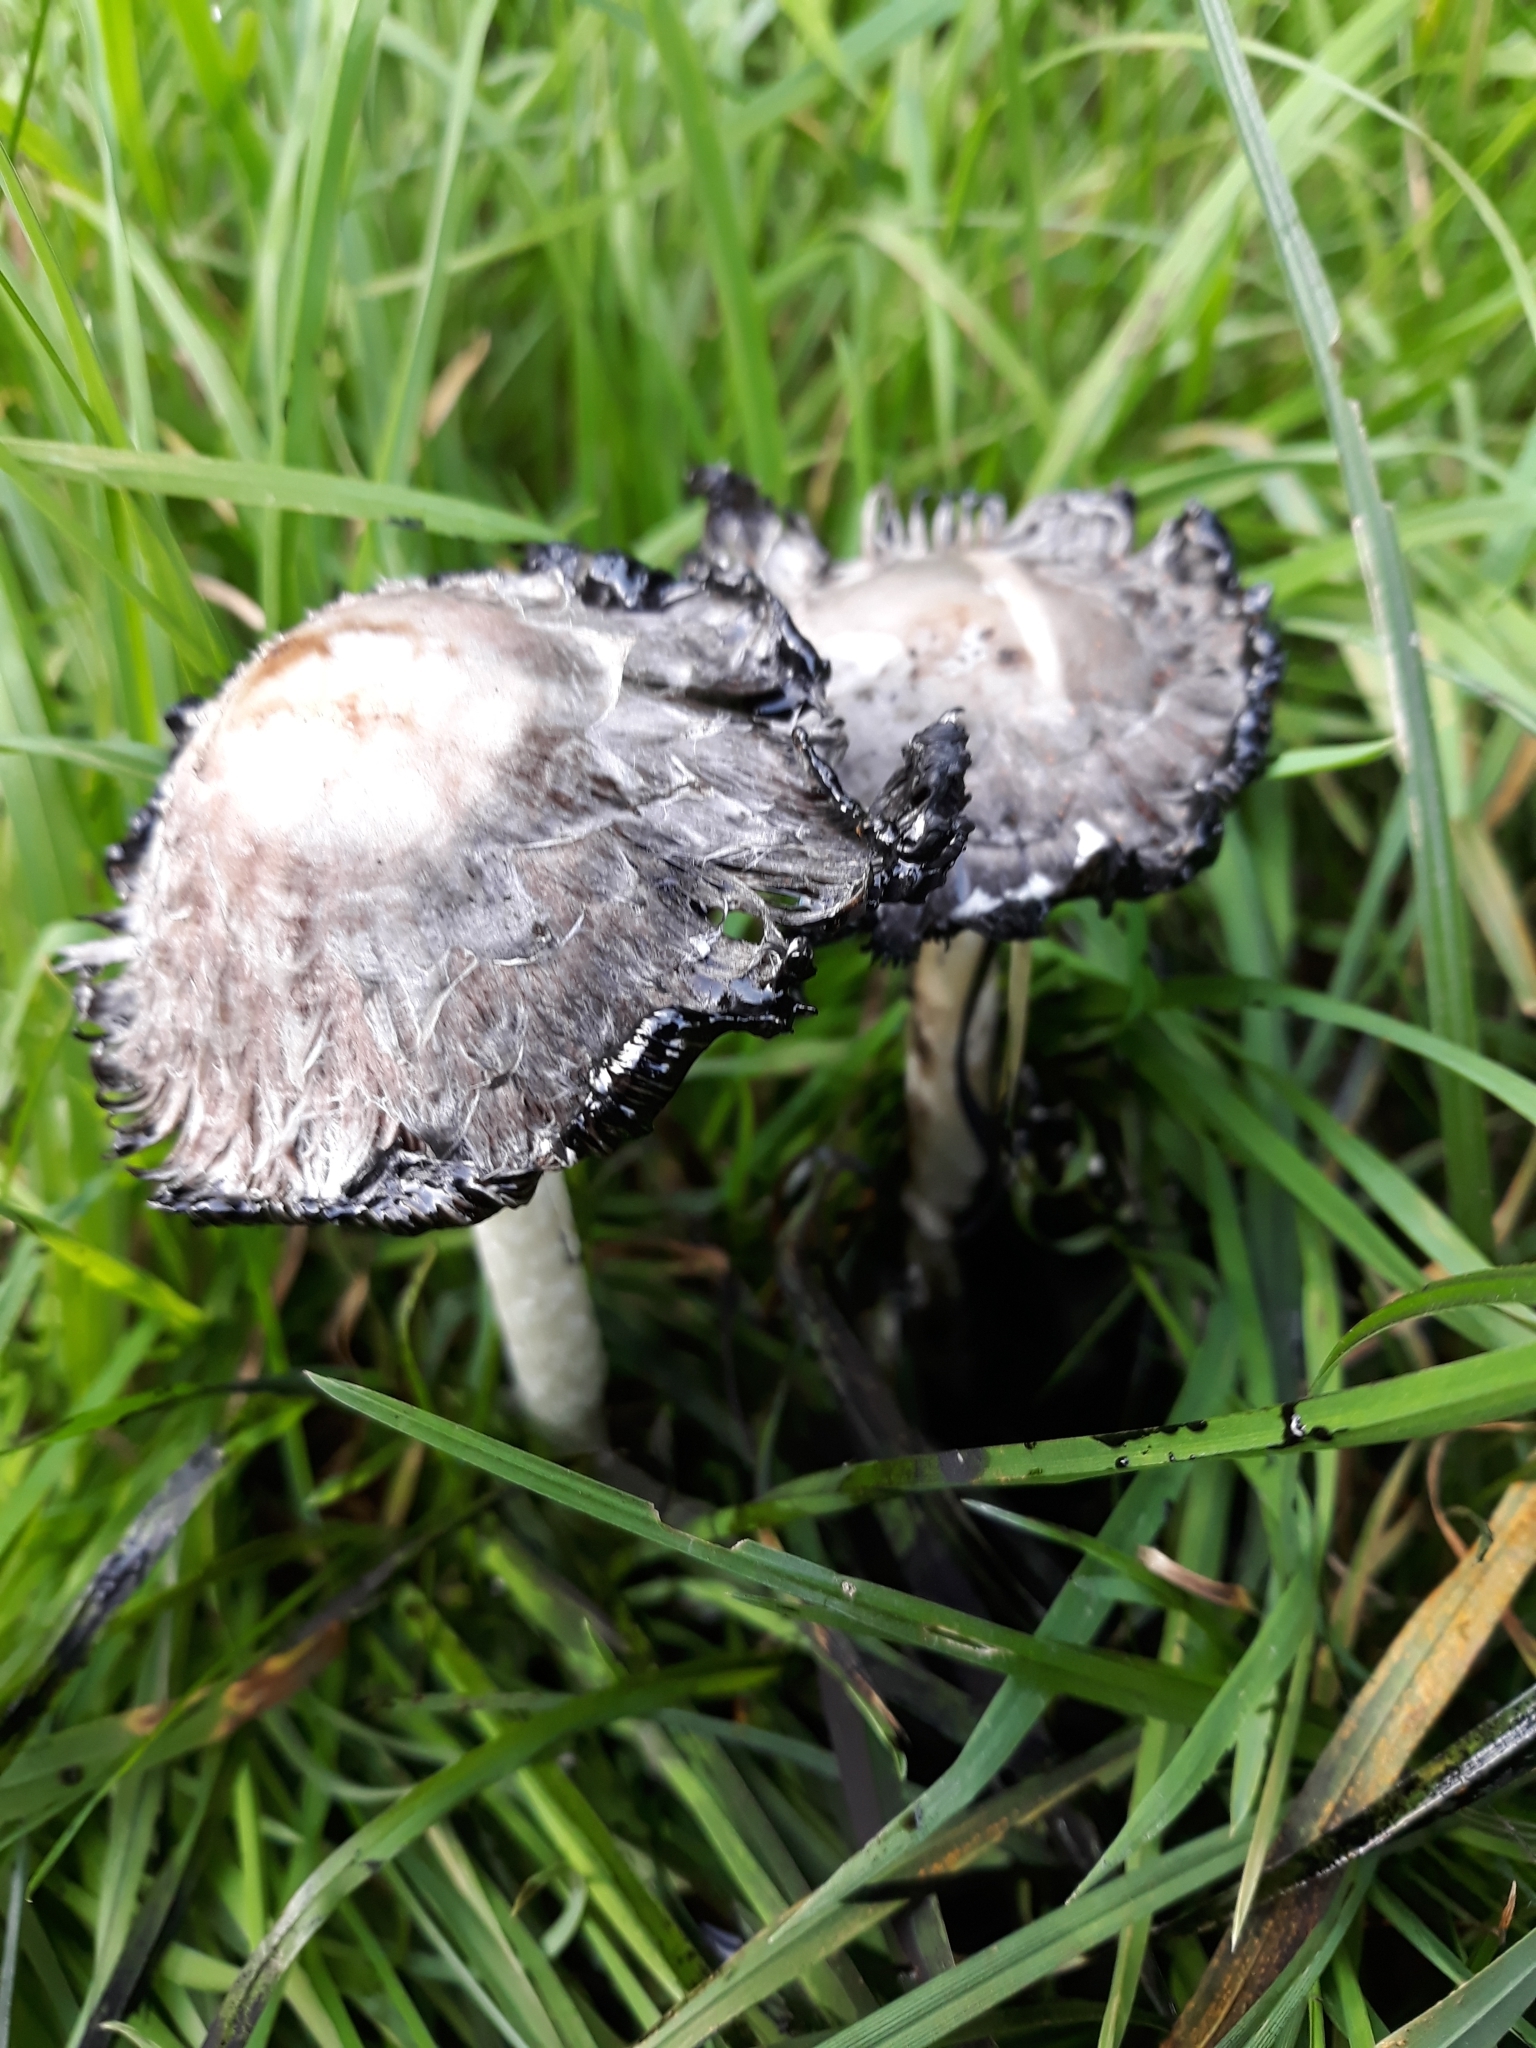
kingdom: Fungi
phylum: Basidiomycota
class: Agaricomycetes
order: Agaricales
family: Agaricaceae
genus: Coprinus
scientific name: Coprinus comatus
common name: Lawyer's wig
